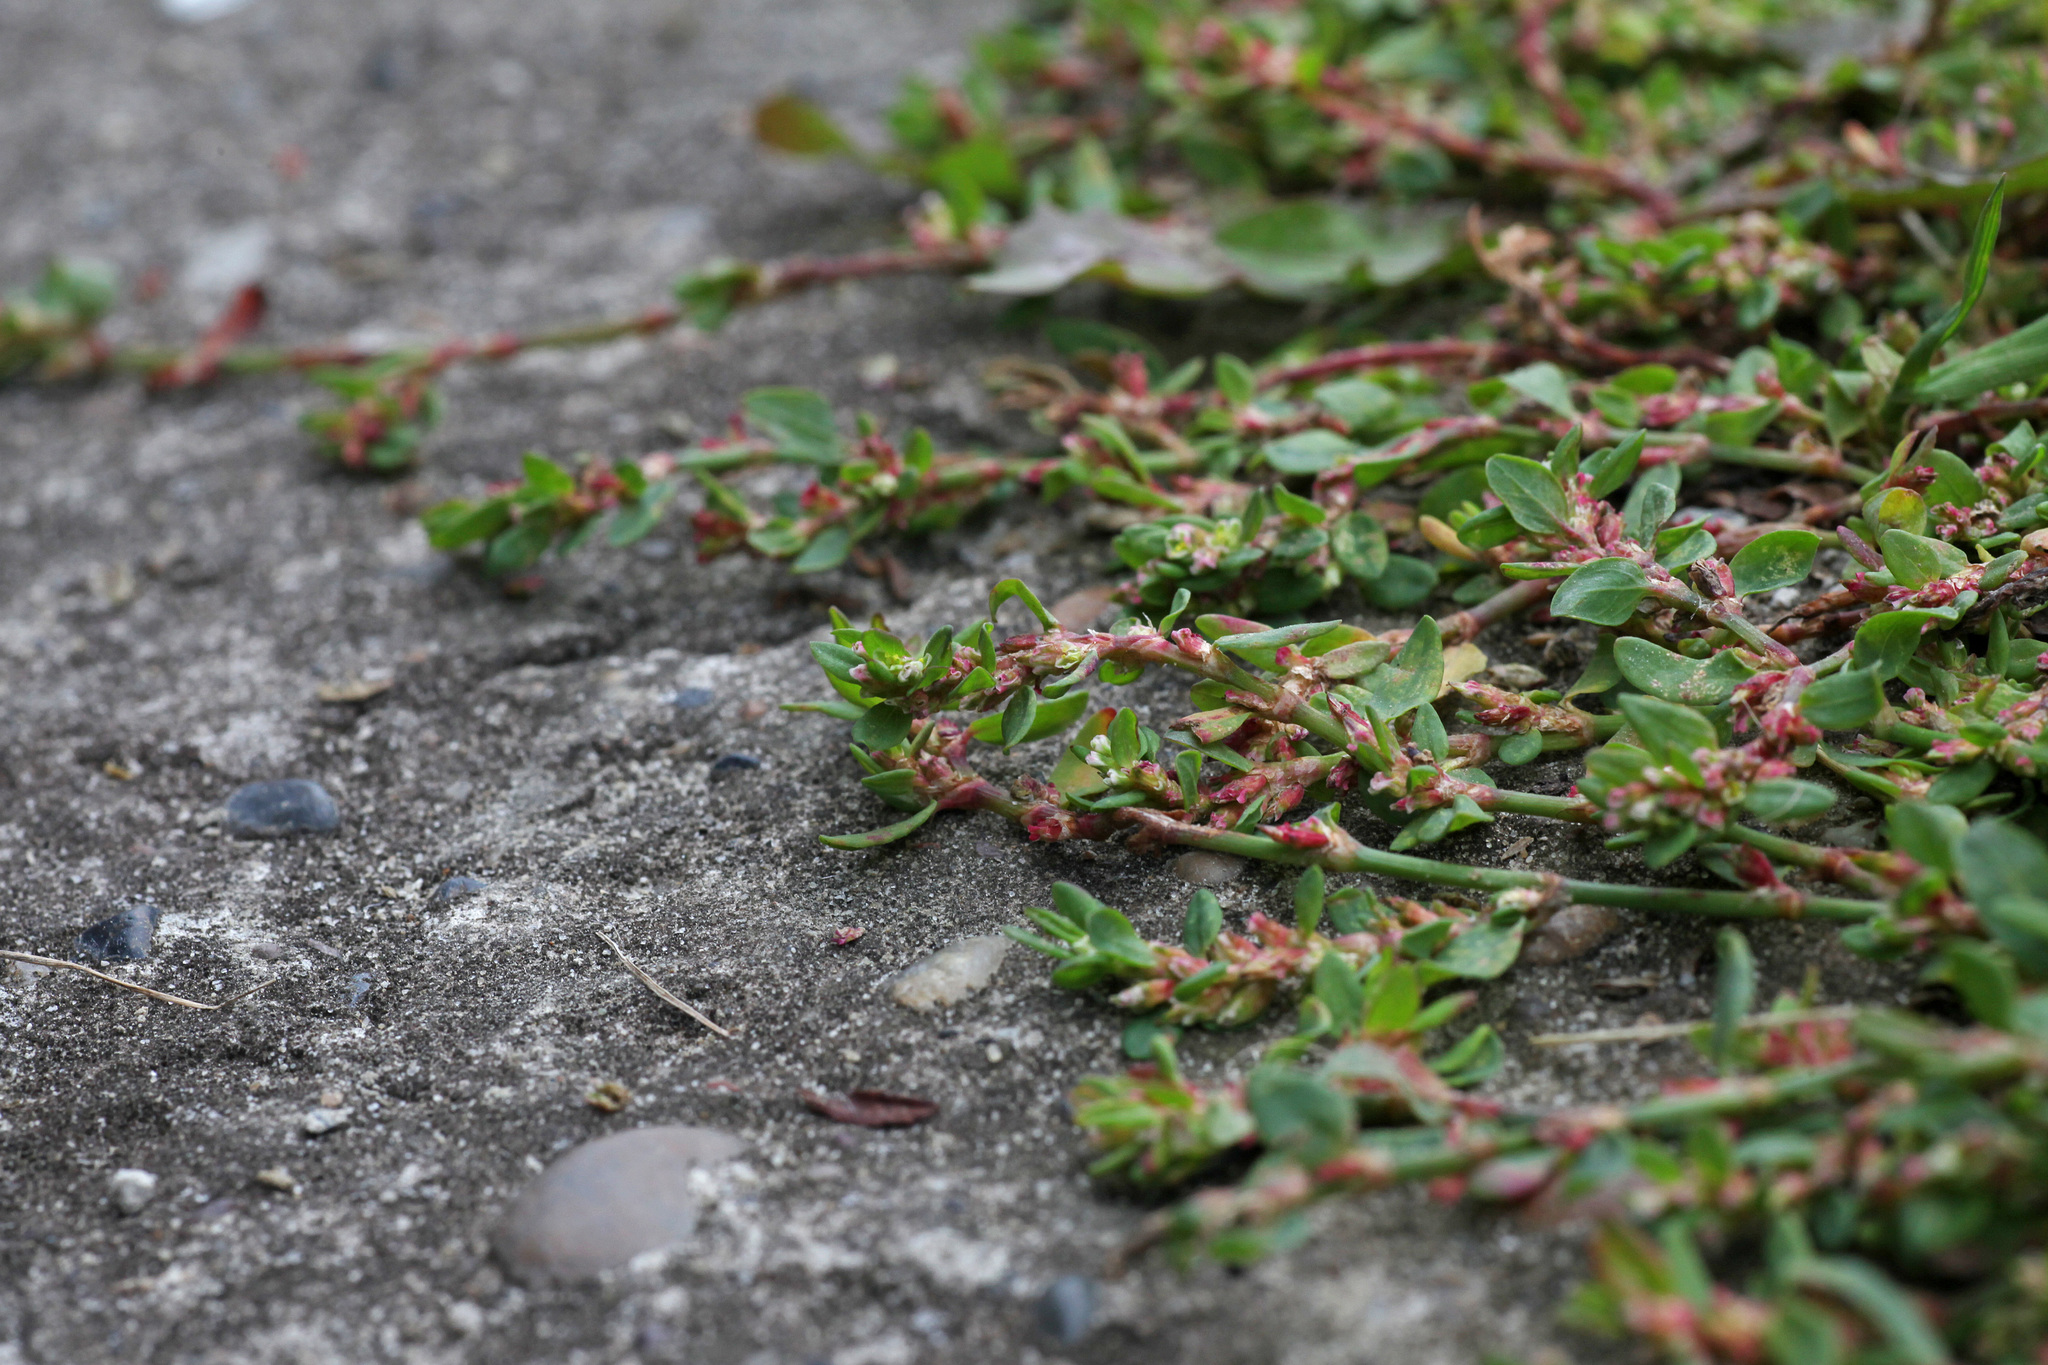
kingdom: Plantae
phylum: Tracheophyta
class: Magnoliopsida
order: Caryophyllales
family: Polygonaceae
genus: Polygonum
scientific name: Polygonum
